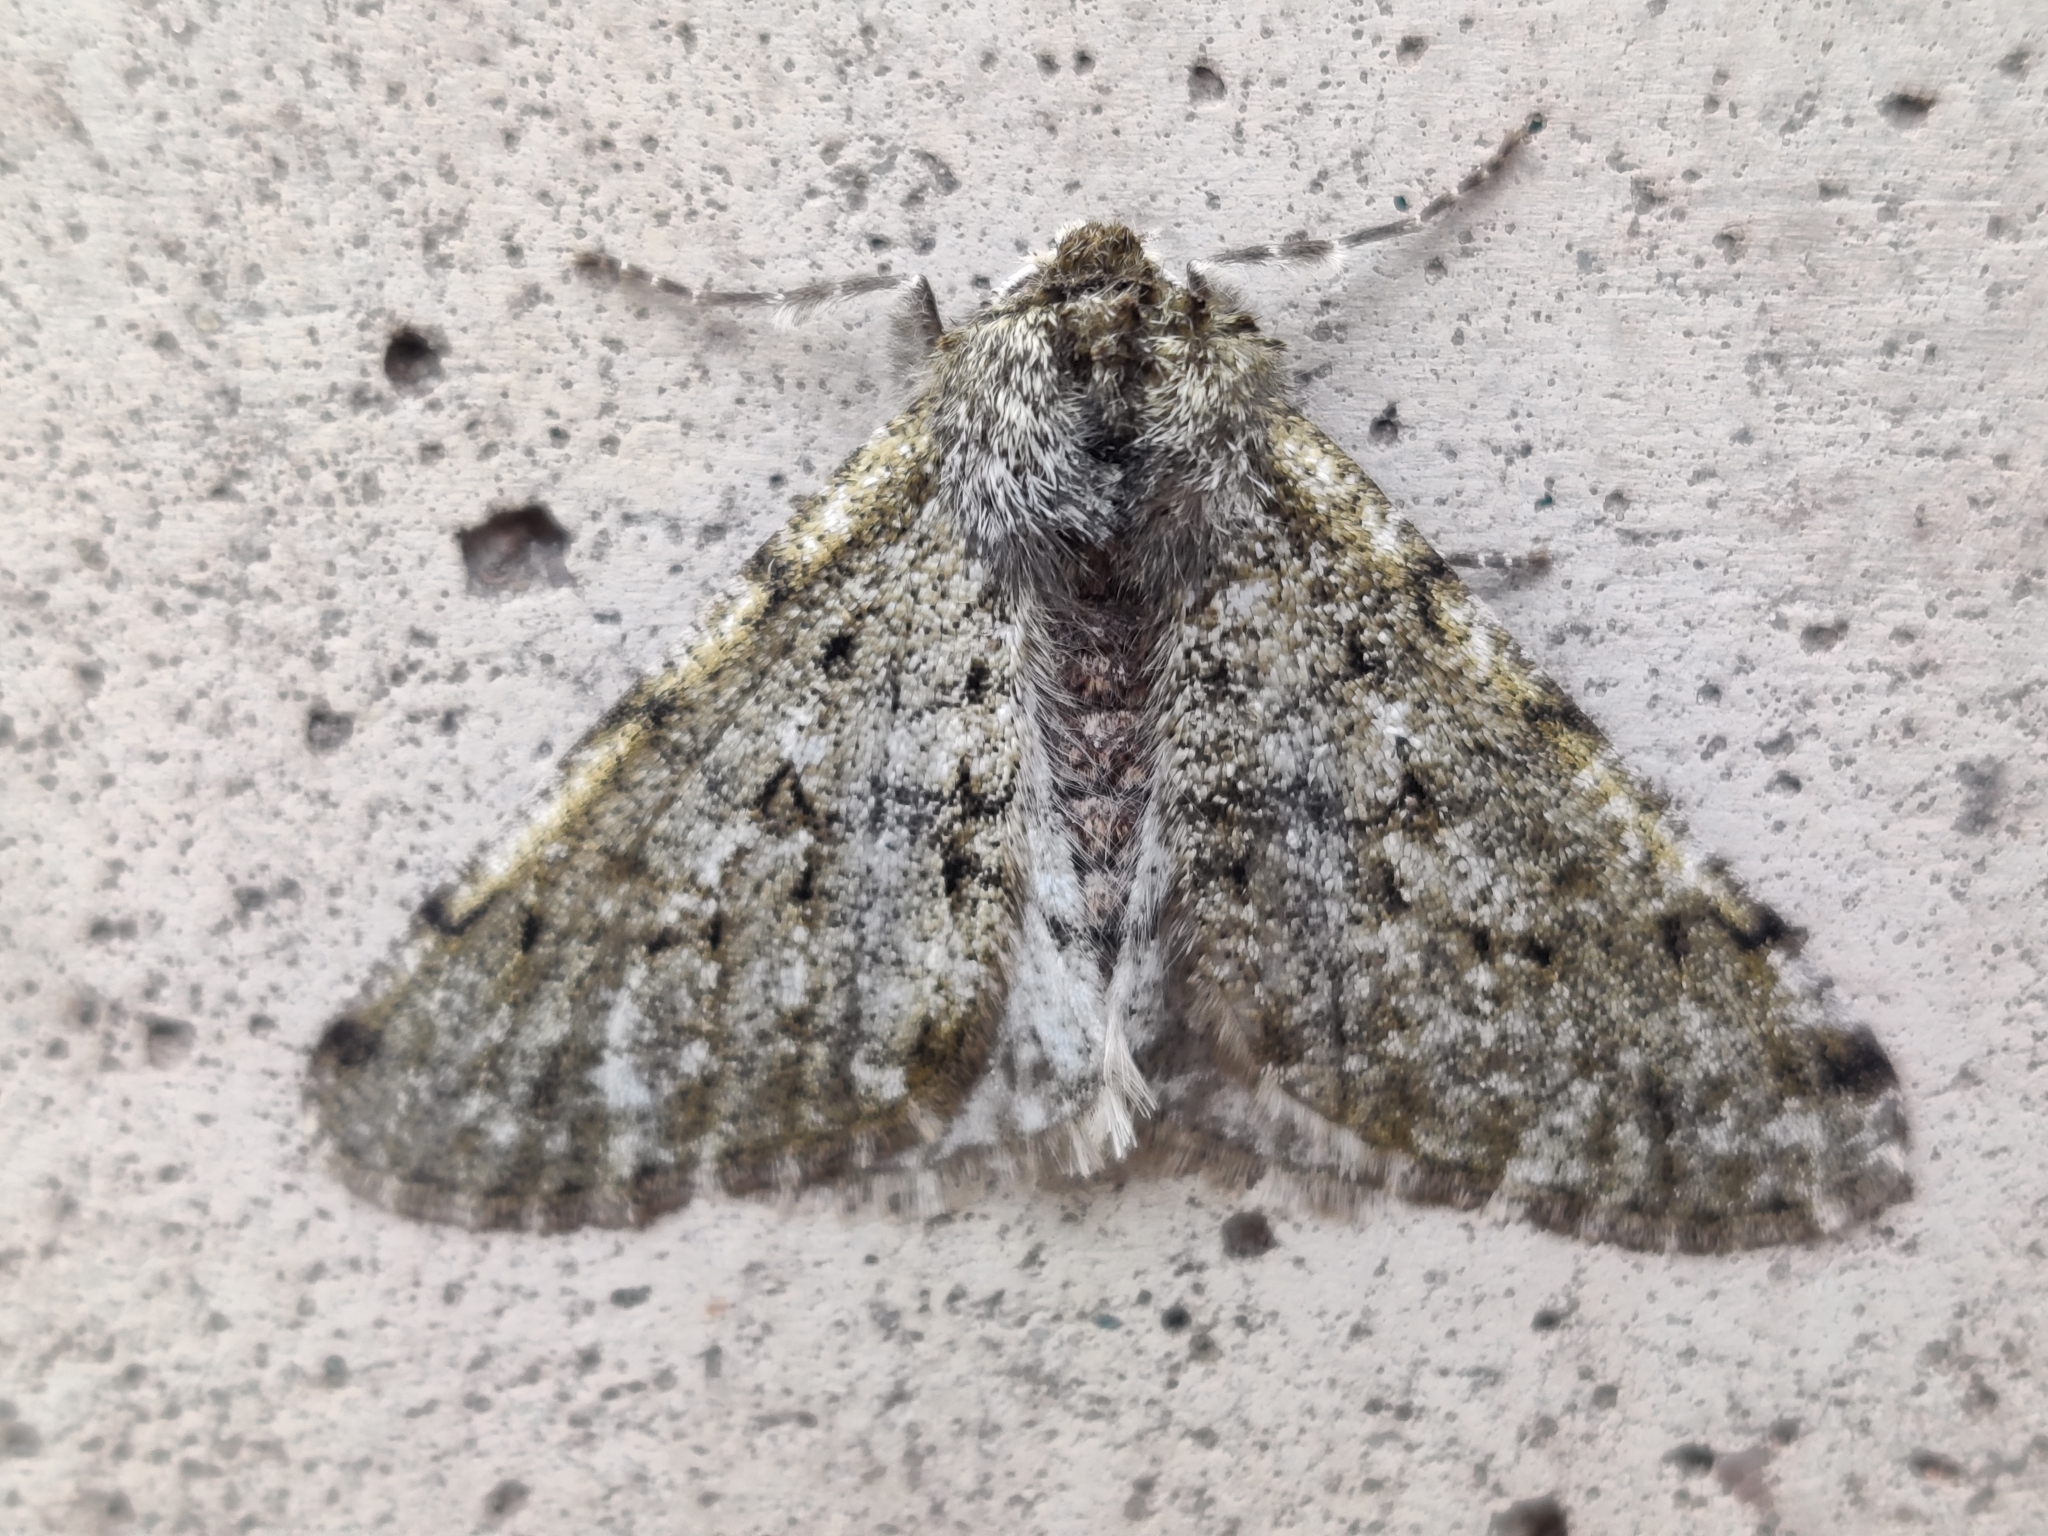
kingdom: Animalia
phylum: Arthropoda
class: Insecta
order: Lepidoptera
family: Geometridae
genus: Phigalia
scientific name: Phigalia pilosaria
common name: Pale brindled beauty
